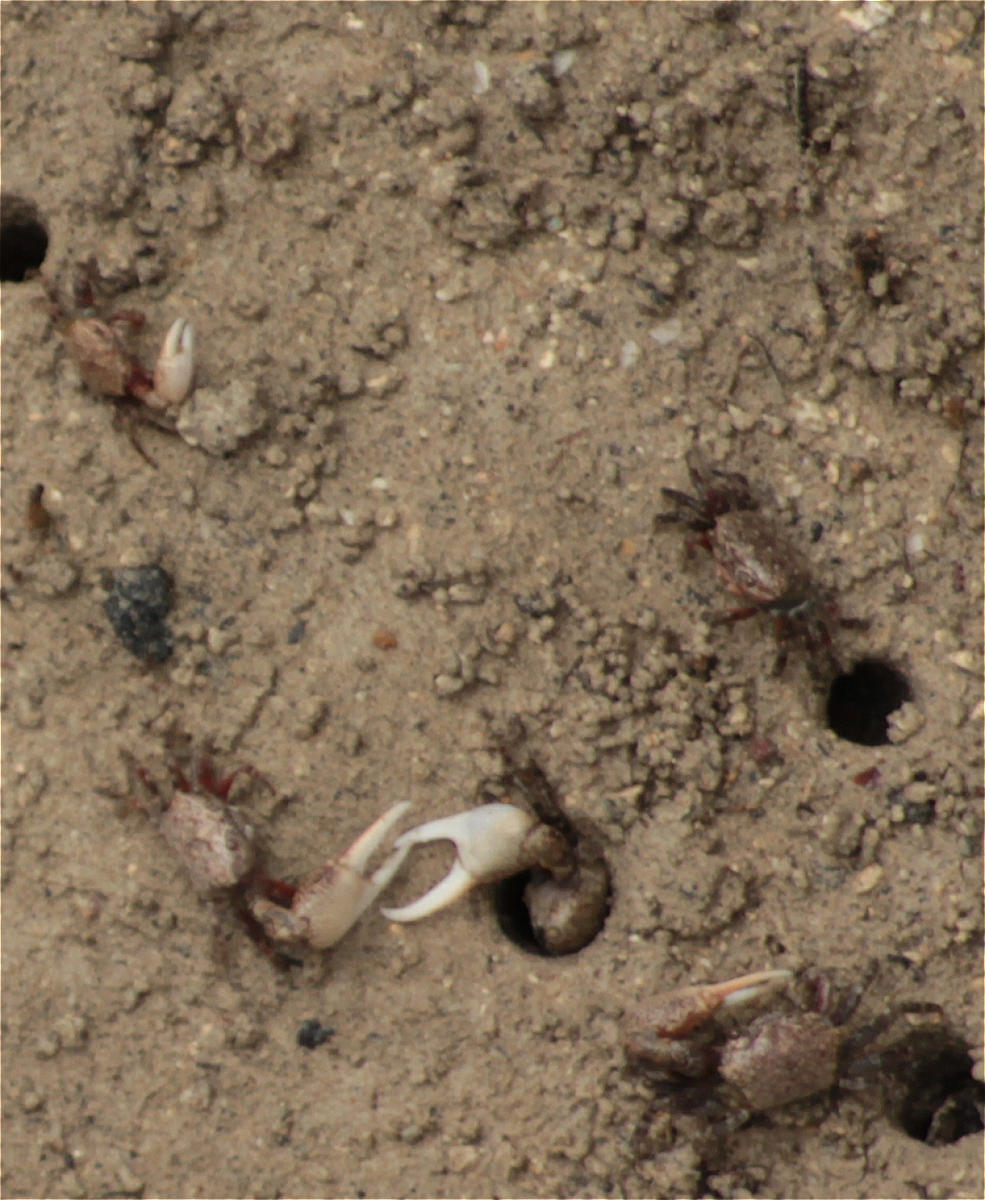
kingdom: Animalia
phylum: Arthropoda
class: Malacostraca
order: Decapoda
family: Ocypodidae
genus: Leptuca
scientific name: Leptuca helleri
